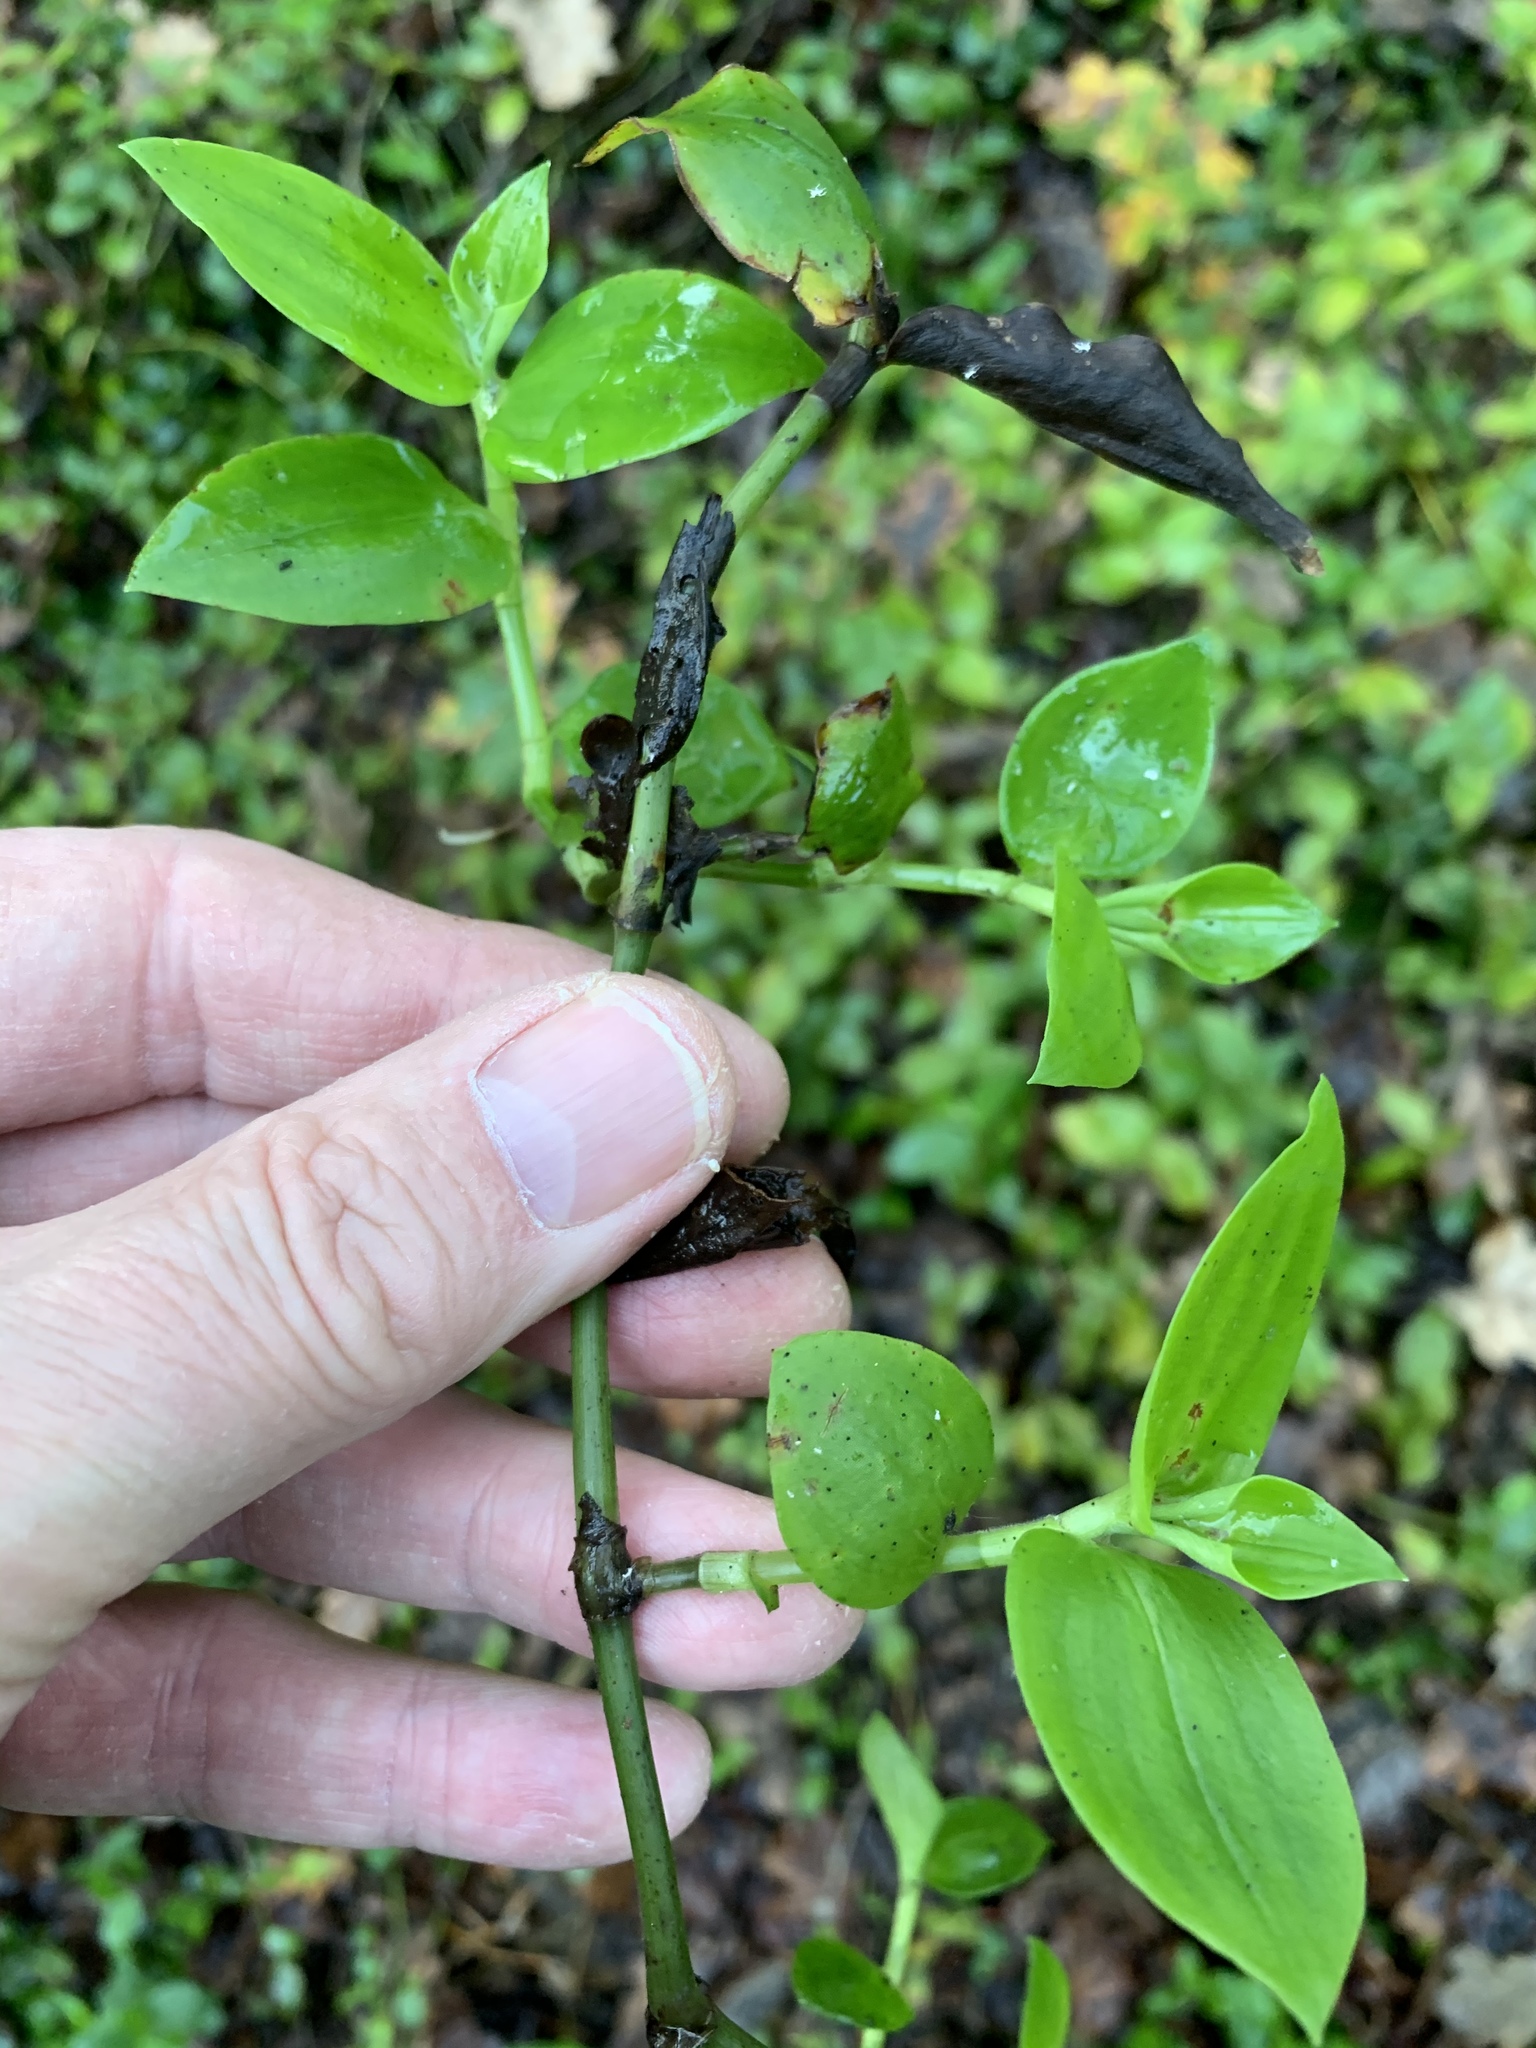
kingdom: Plantae
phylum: Tracheophyta
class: Liliopsida
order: Commelinales
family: Commelinaceae
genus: Tradescantia
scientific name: Tradescantia fluminensis
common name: Wandering-jew
